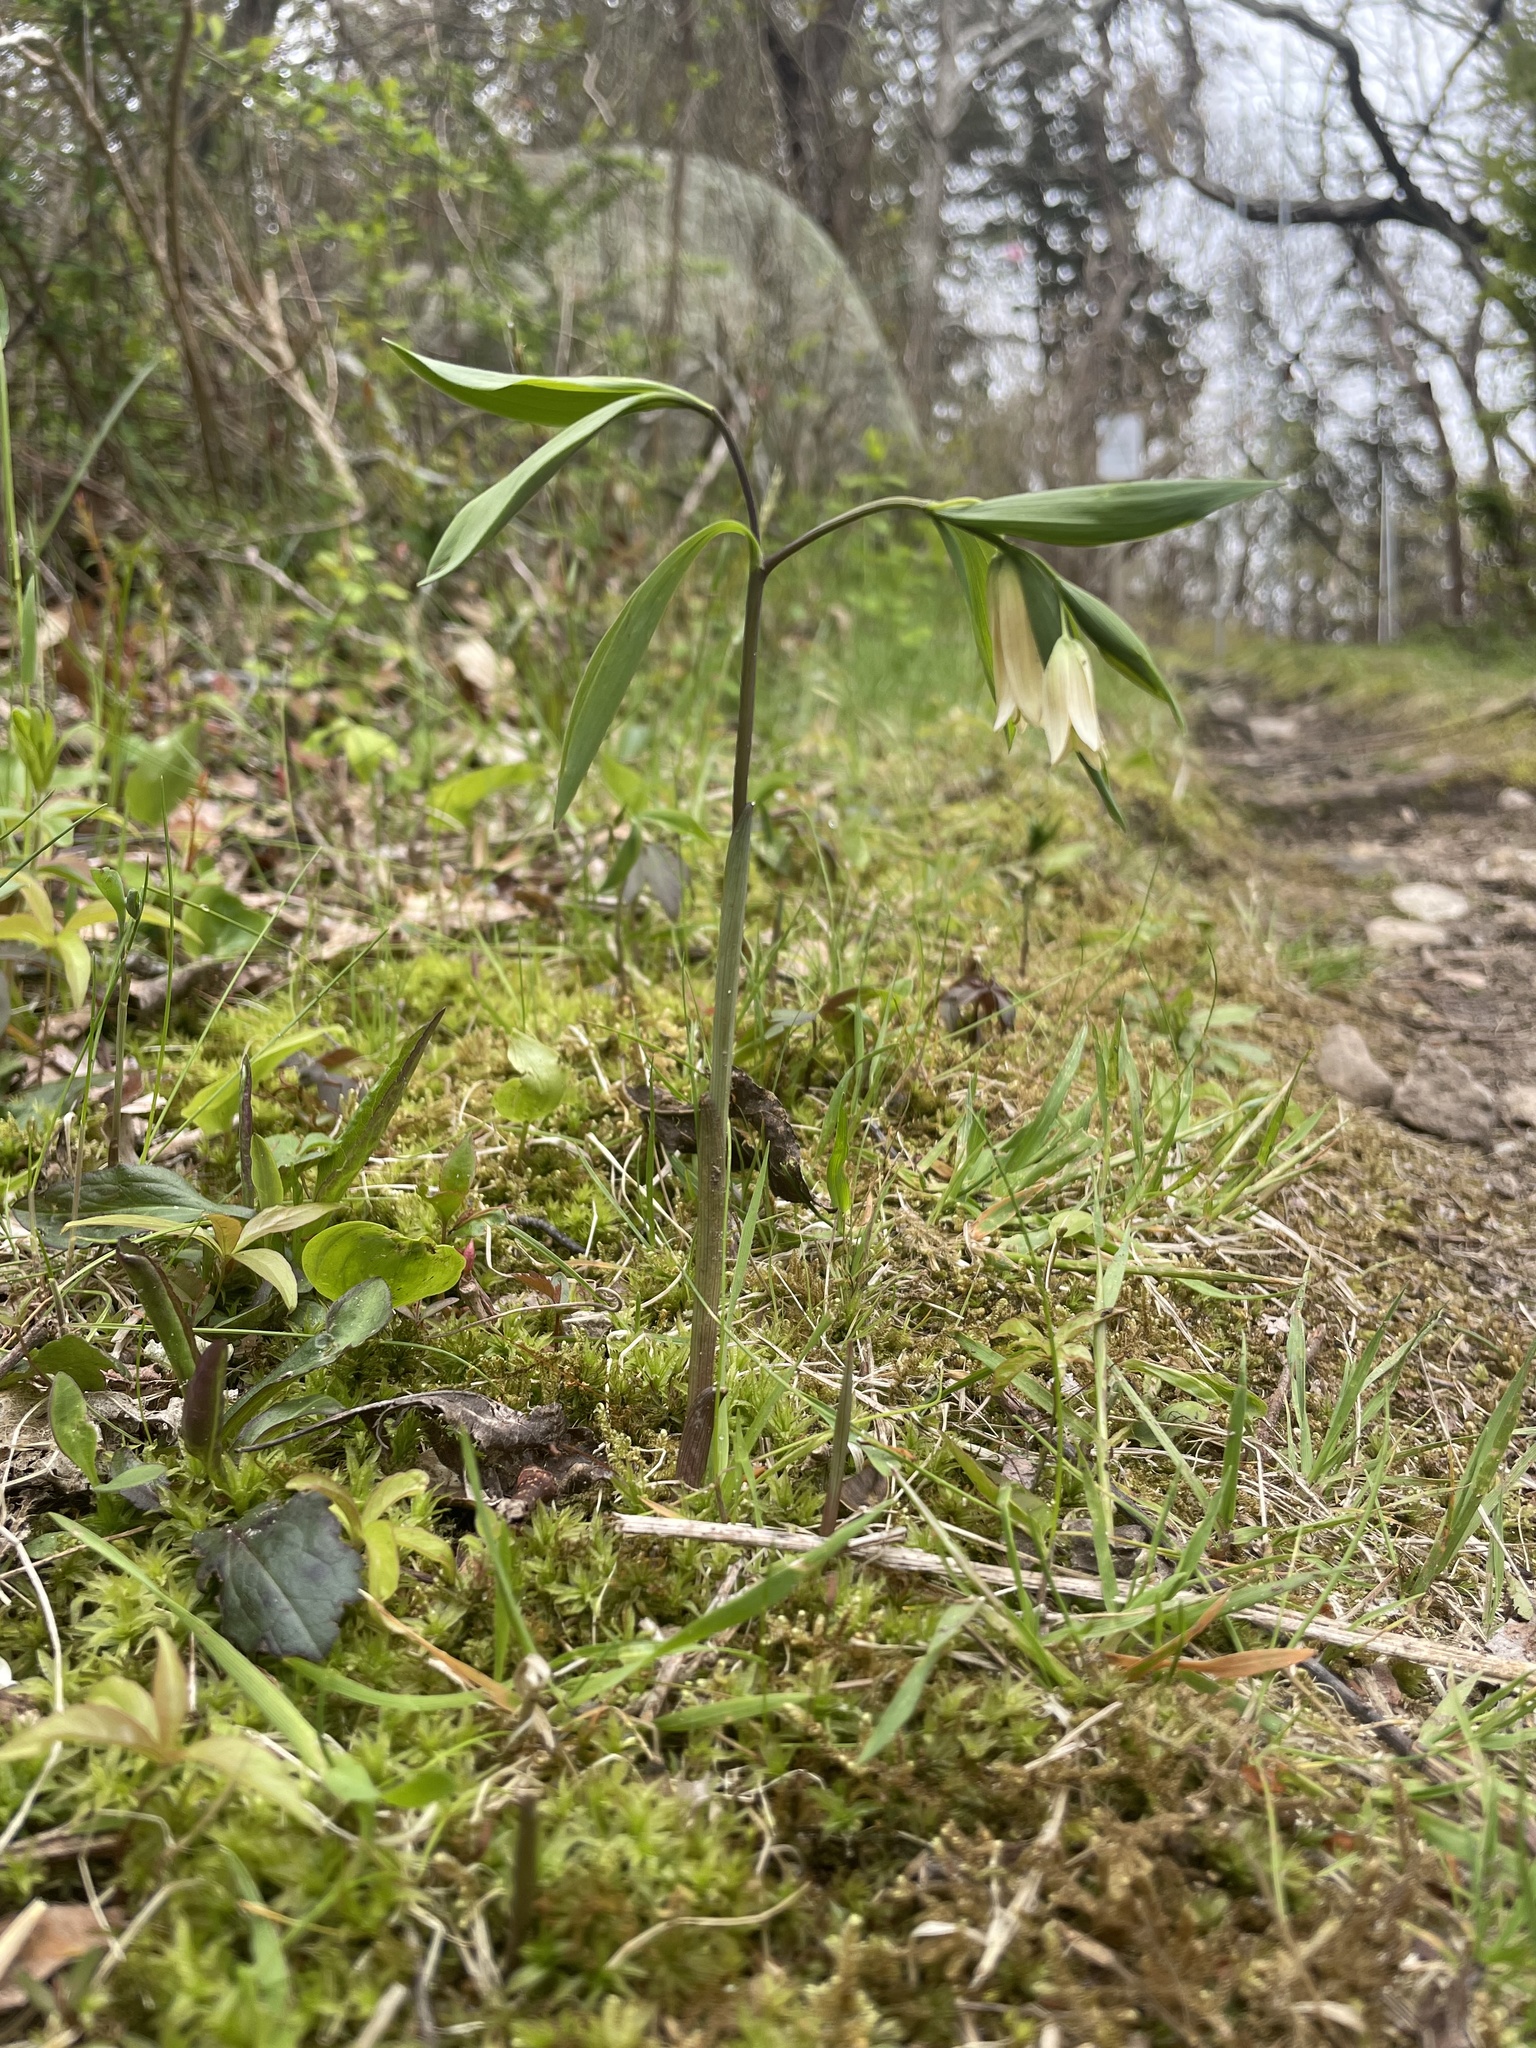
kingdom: Plantae
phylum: Tracheophyta
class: Liliopsida
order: Liliales
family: Colchicaceae
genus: Uvularia
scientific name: Uvularia sessilifolia
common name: Straw-lily
